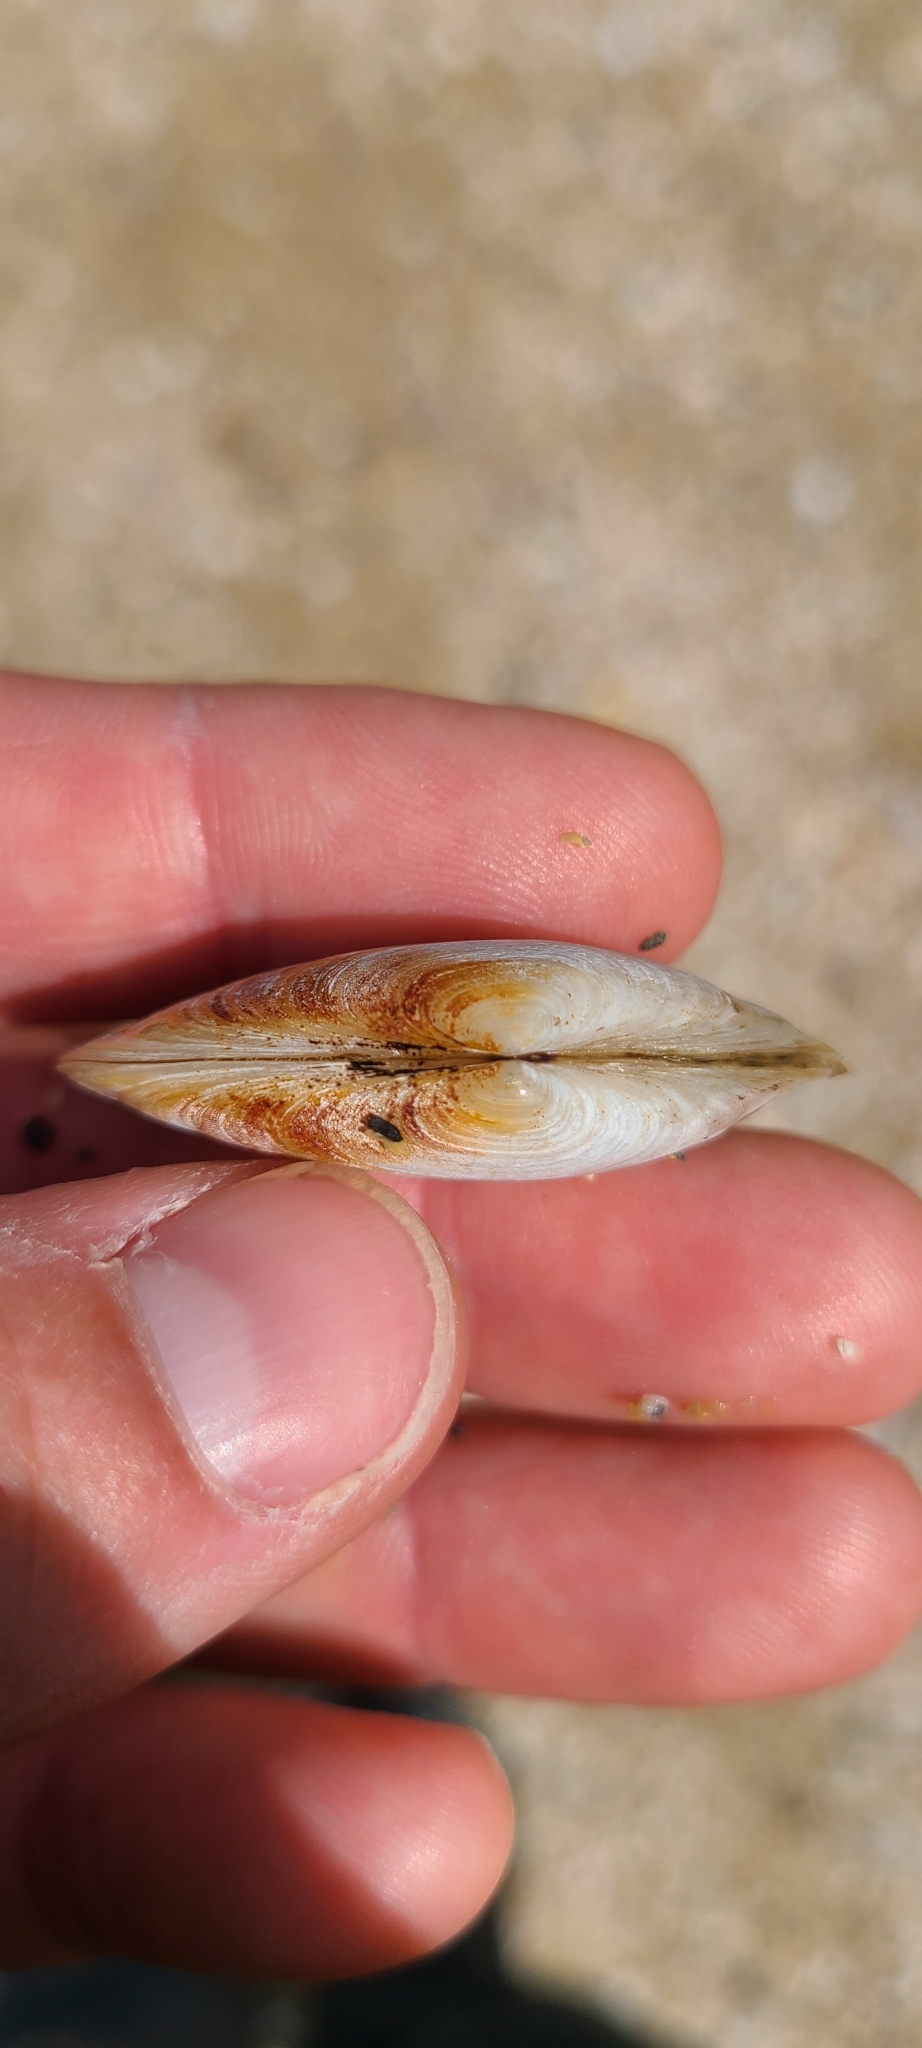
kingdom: Animalia
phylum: Mollusca
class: Bivalvia
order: Venerida
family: Mesodesmatidae
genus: Paphies
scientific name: Paphies australis
